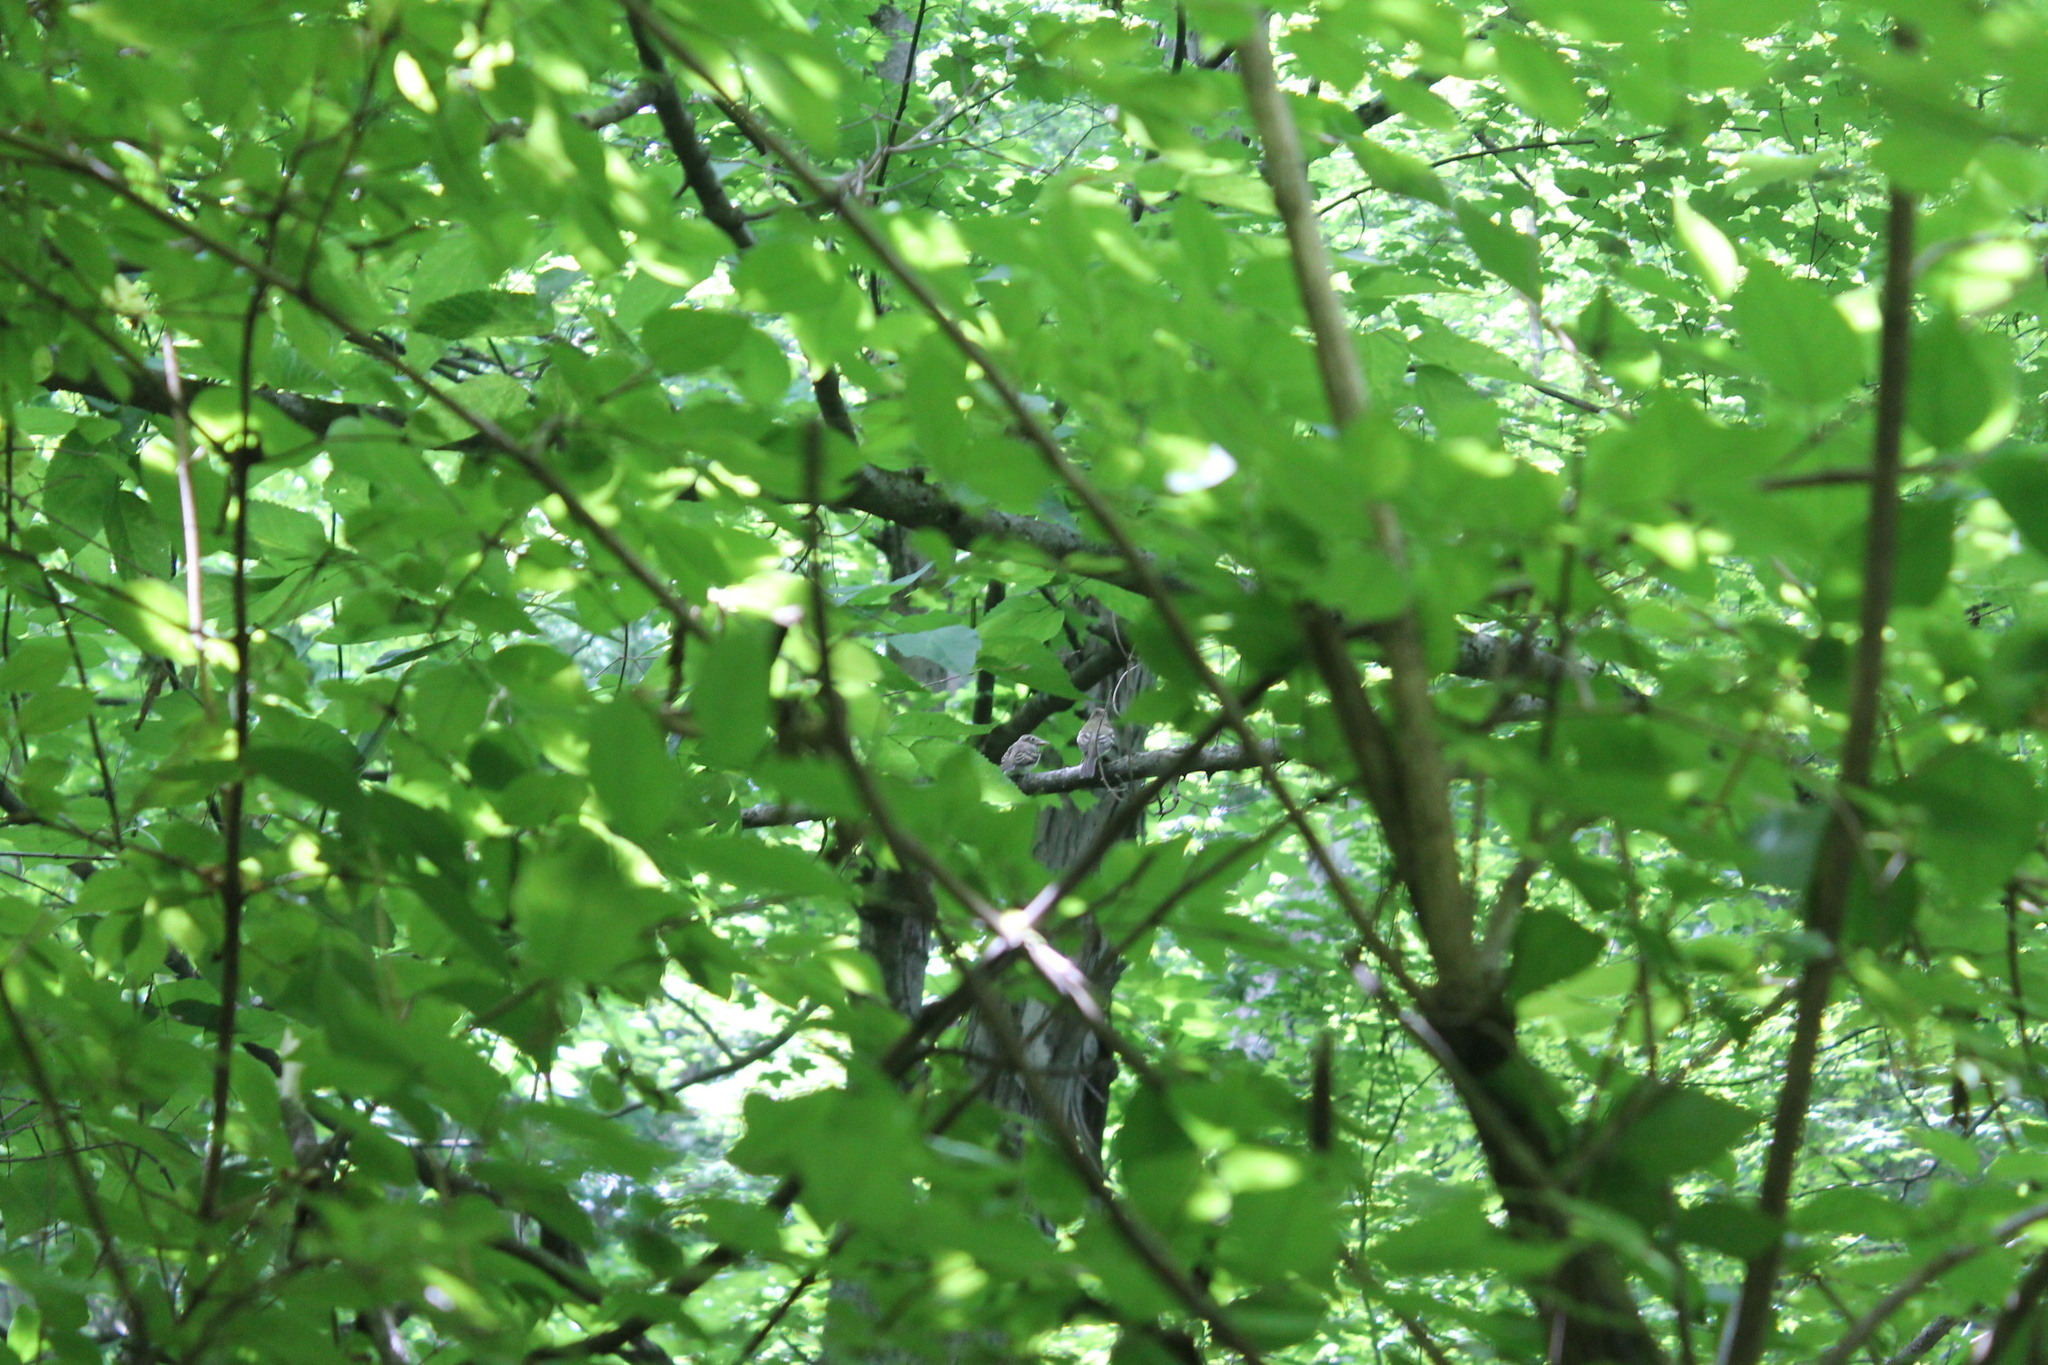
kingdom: Animalia
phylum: Chordata
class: Aves
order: Passeriformes
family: Tyrannidae
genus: Contopus
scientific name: Contopus virens
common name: Eastern wood-pewee
